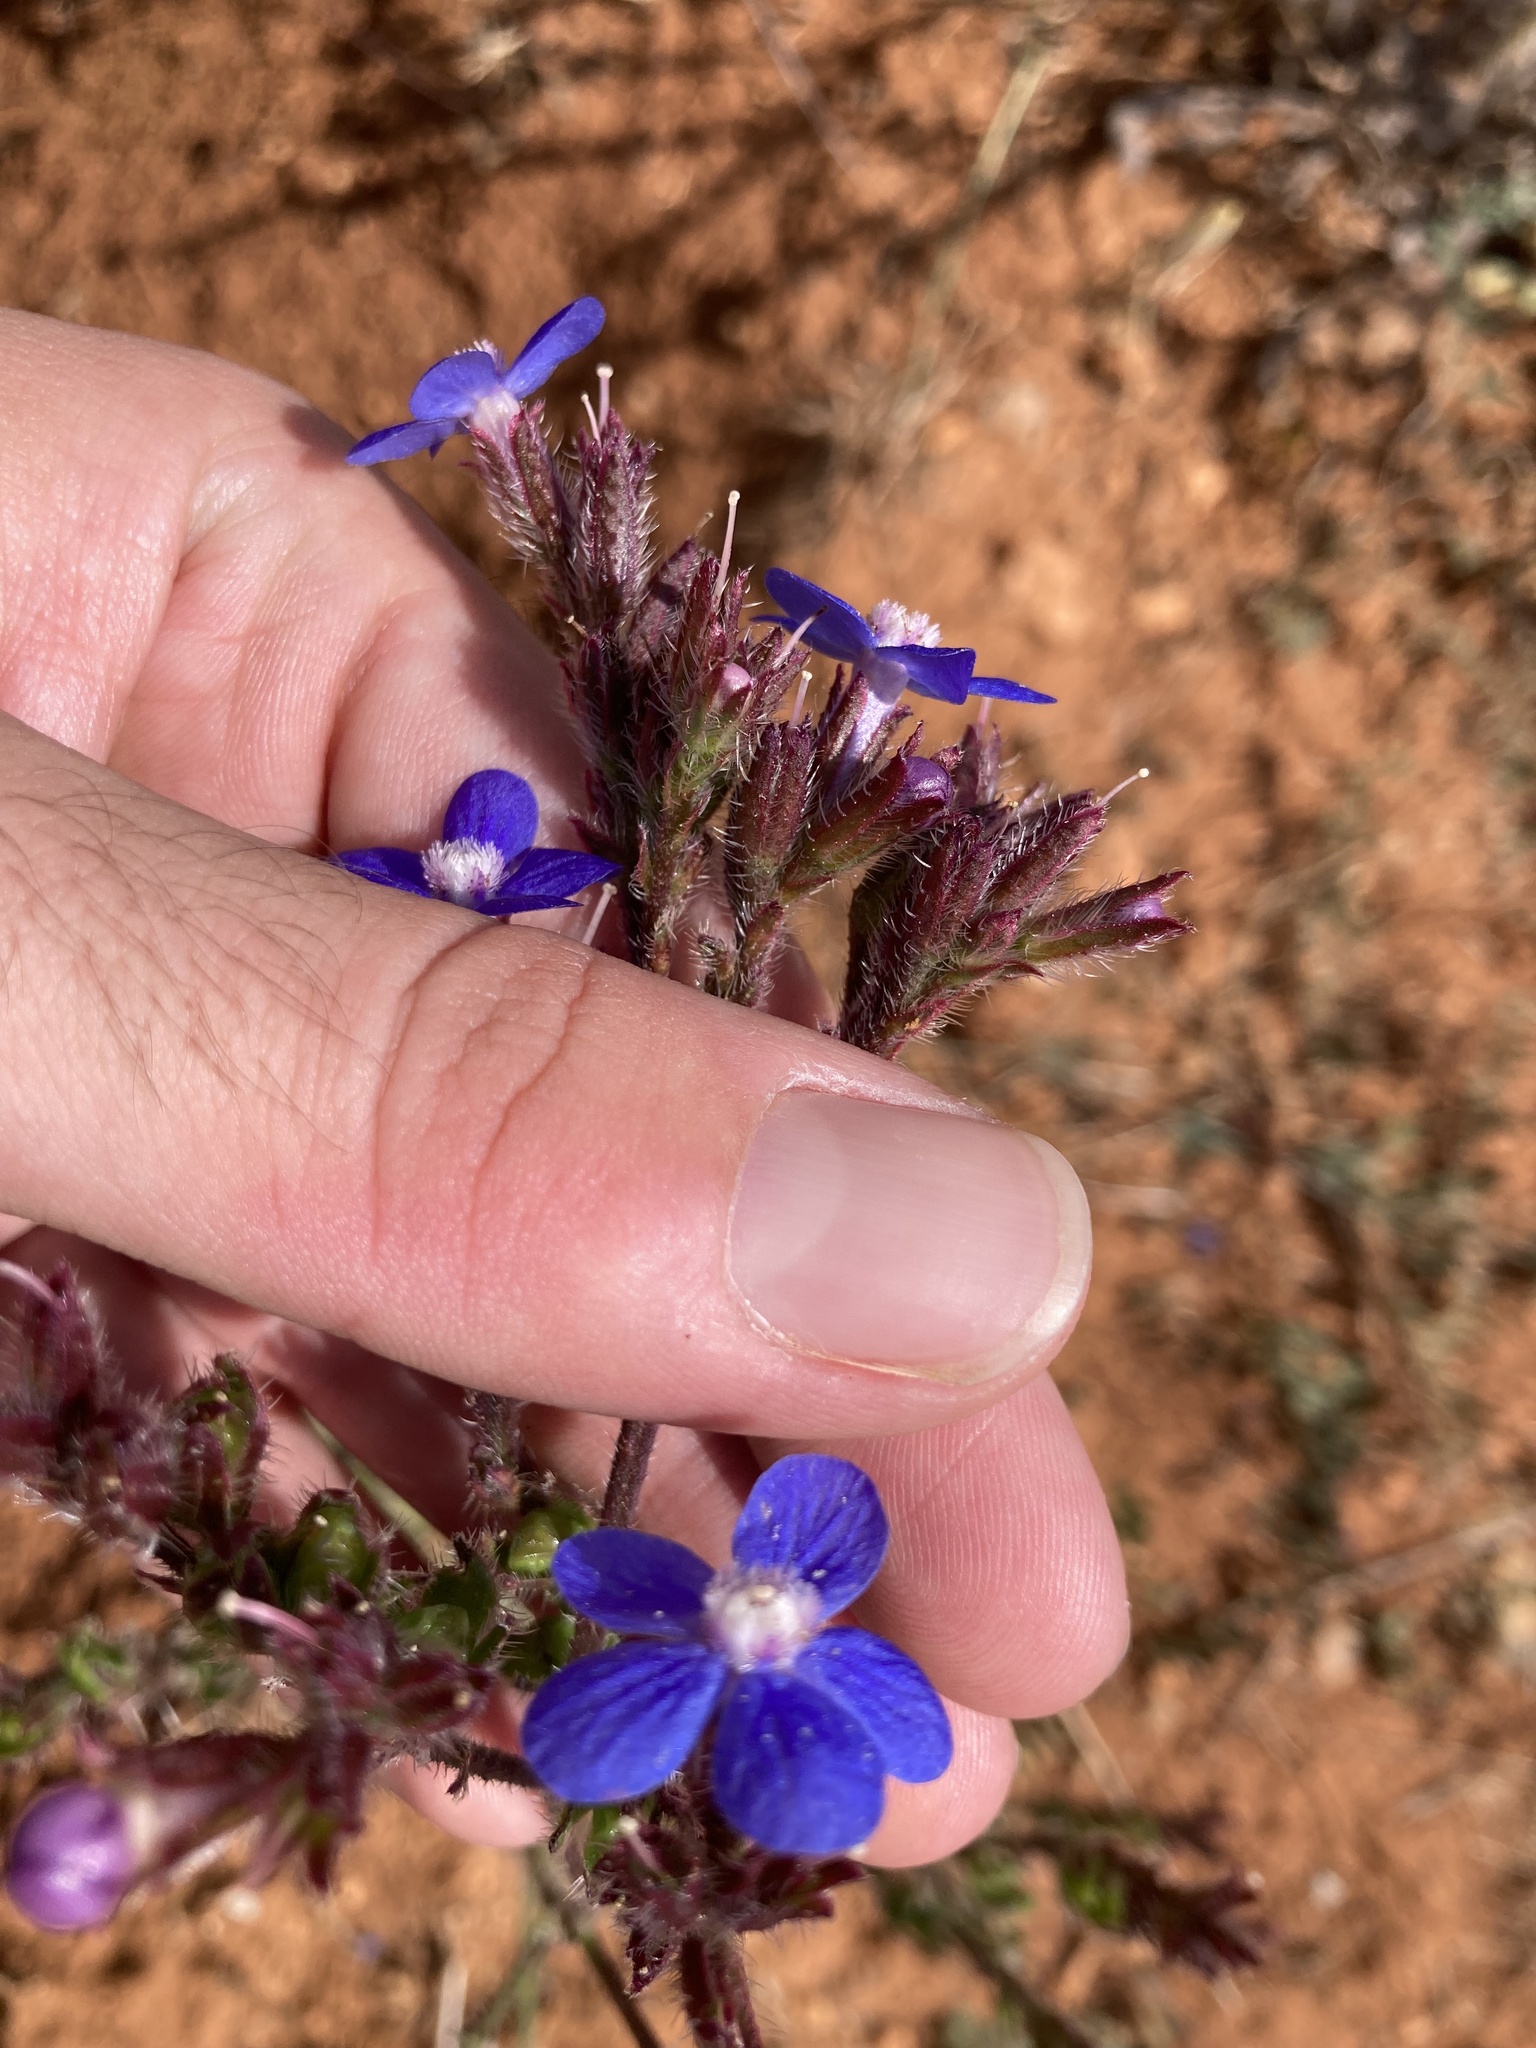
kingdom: Plantae
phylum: Tracheophyta
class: Magnoliopsida
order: Boraginales
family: Boraginaceae
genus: Anchusa
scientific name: Anchusa azurea
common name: Garden anchusa
